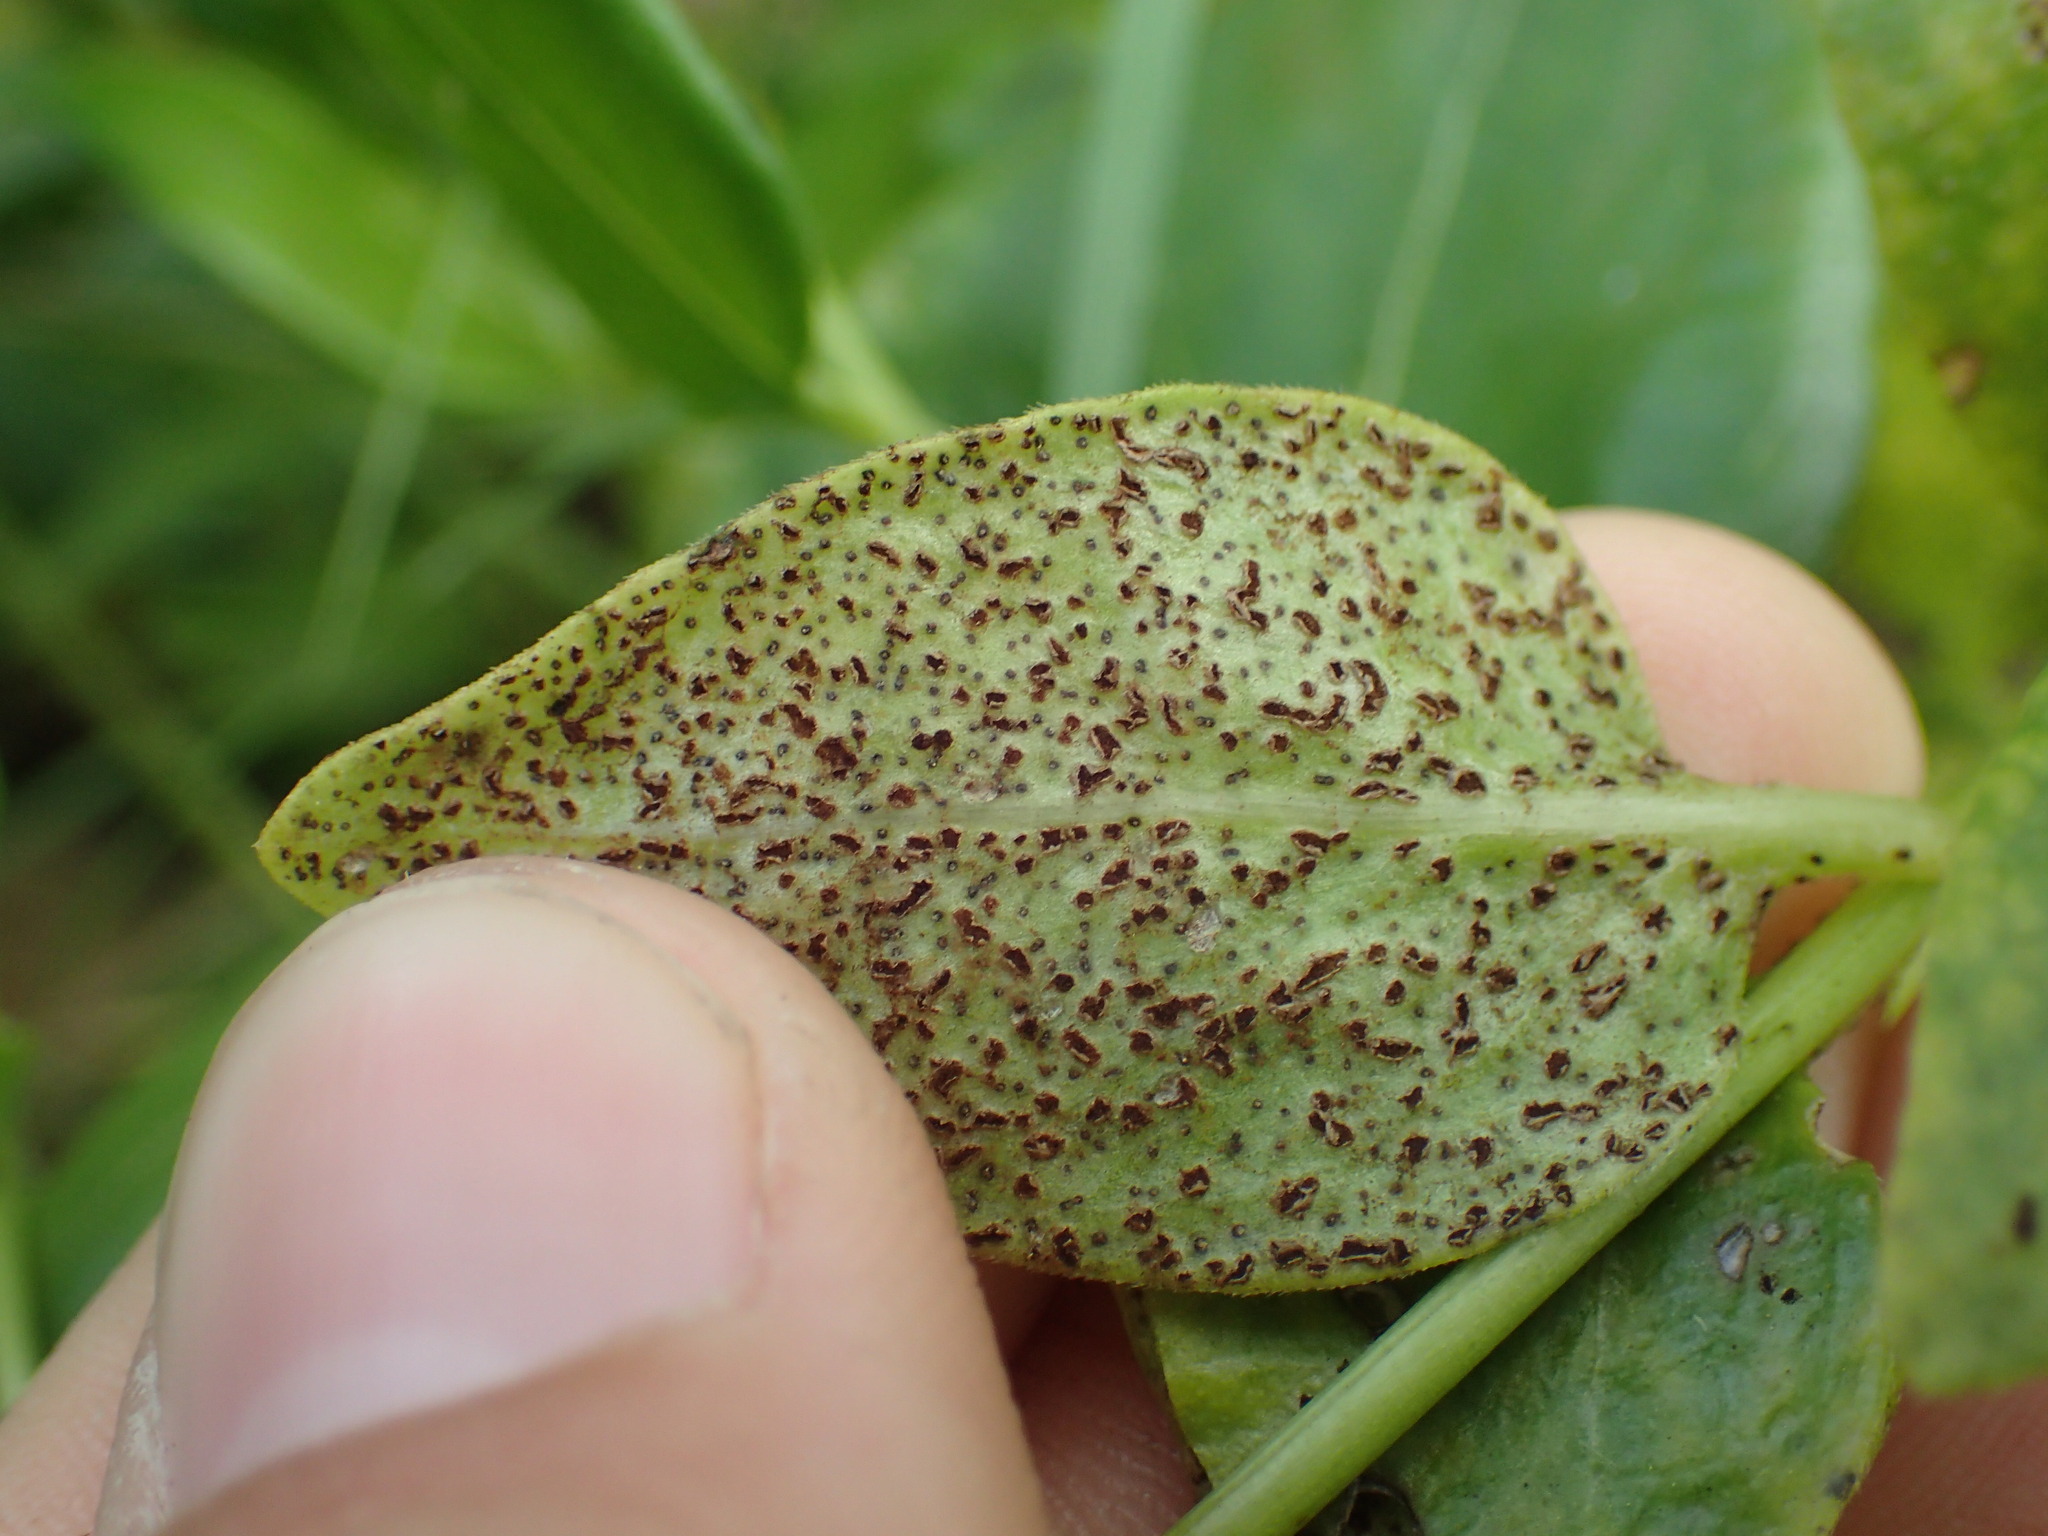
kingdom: Fungi
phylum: Basidiomycota
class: Pucciniomycetes
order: Pucciniales
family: Pucciniaceae
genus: Puccinia
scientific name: Puccinia vincae
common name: Periwinkle rust
